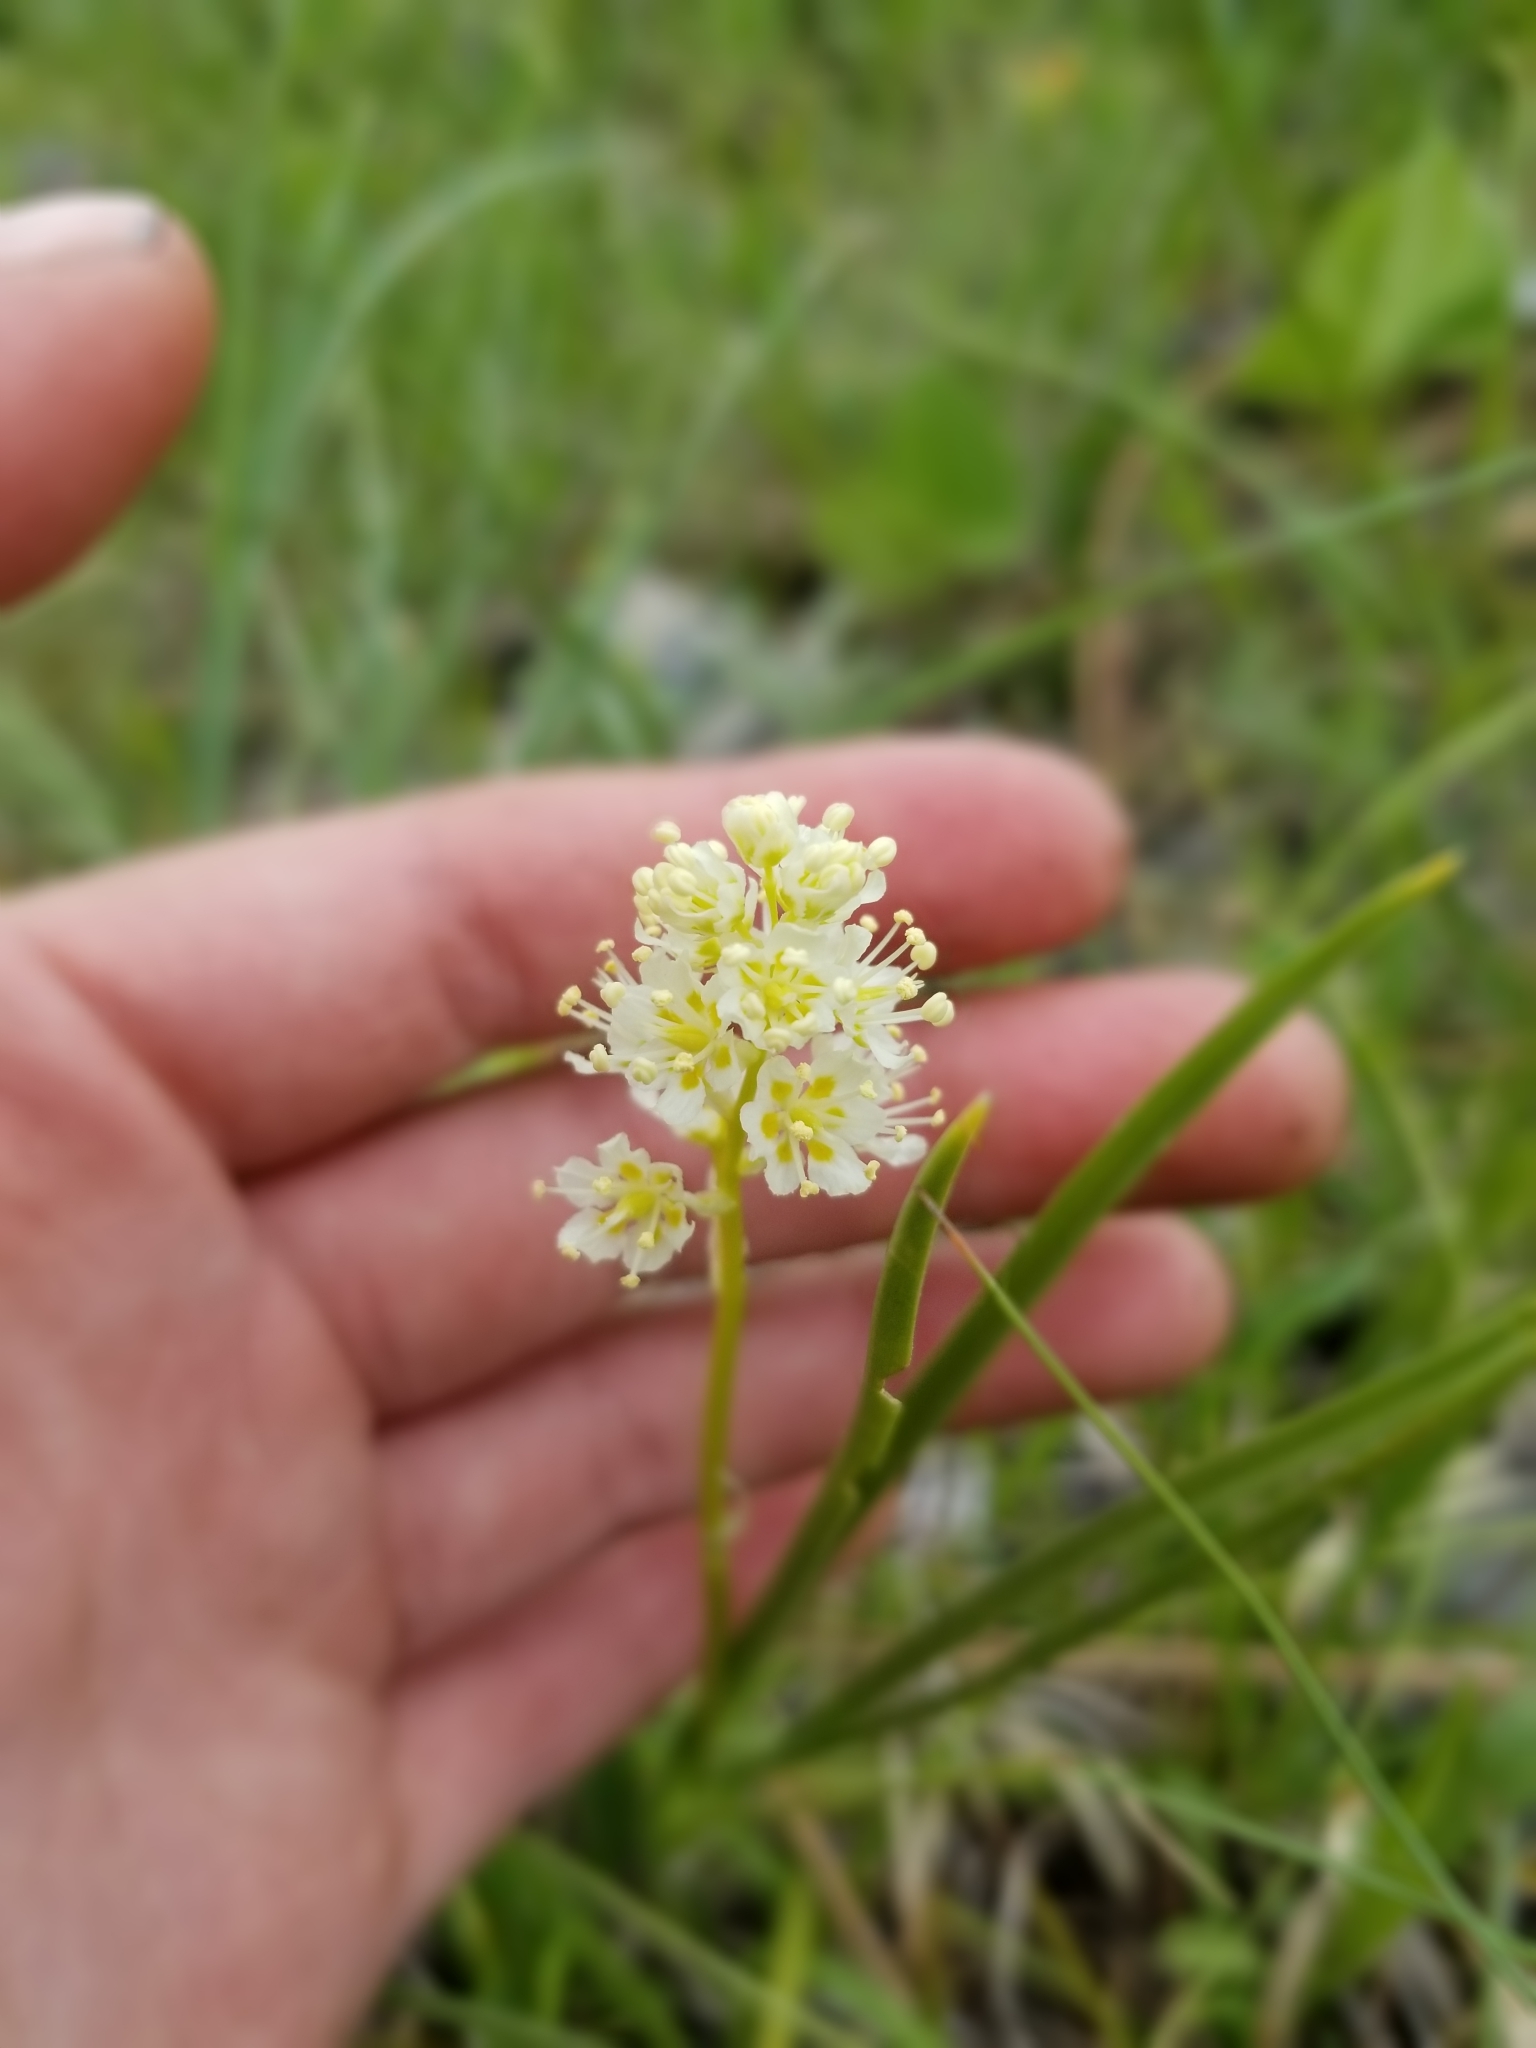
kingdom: Plantae
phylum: Tracheophyta
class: Liliopsida
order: Liliales
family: Melanthiaceae
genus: Anticlea
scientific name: Anticlea elegans
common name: Mountain death camas
